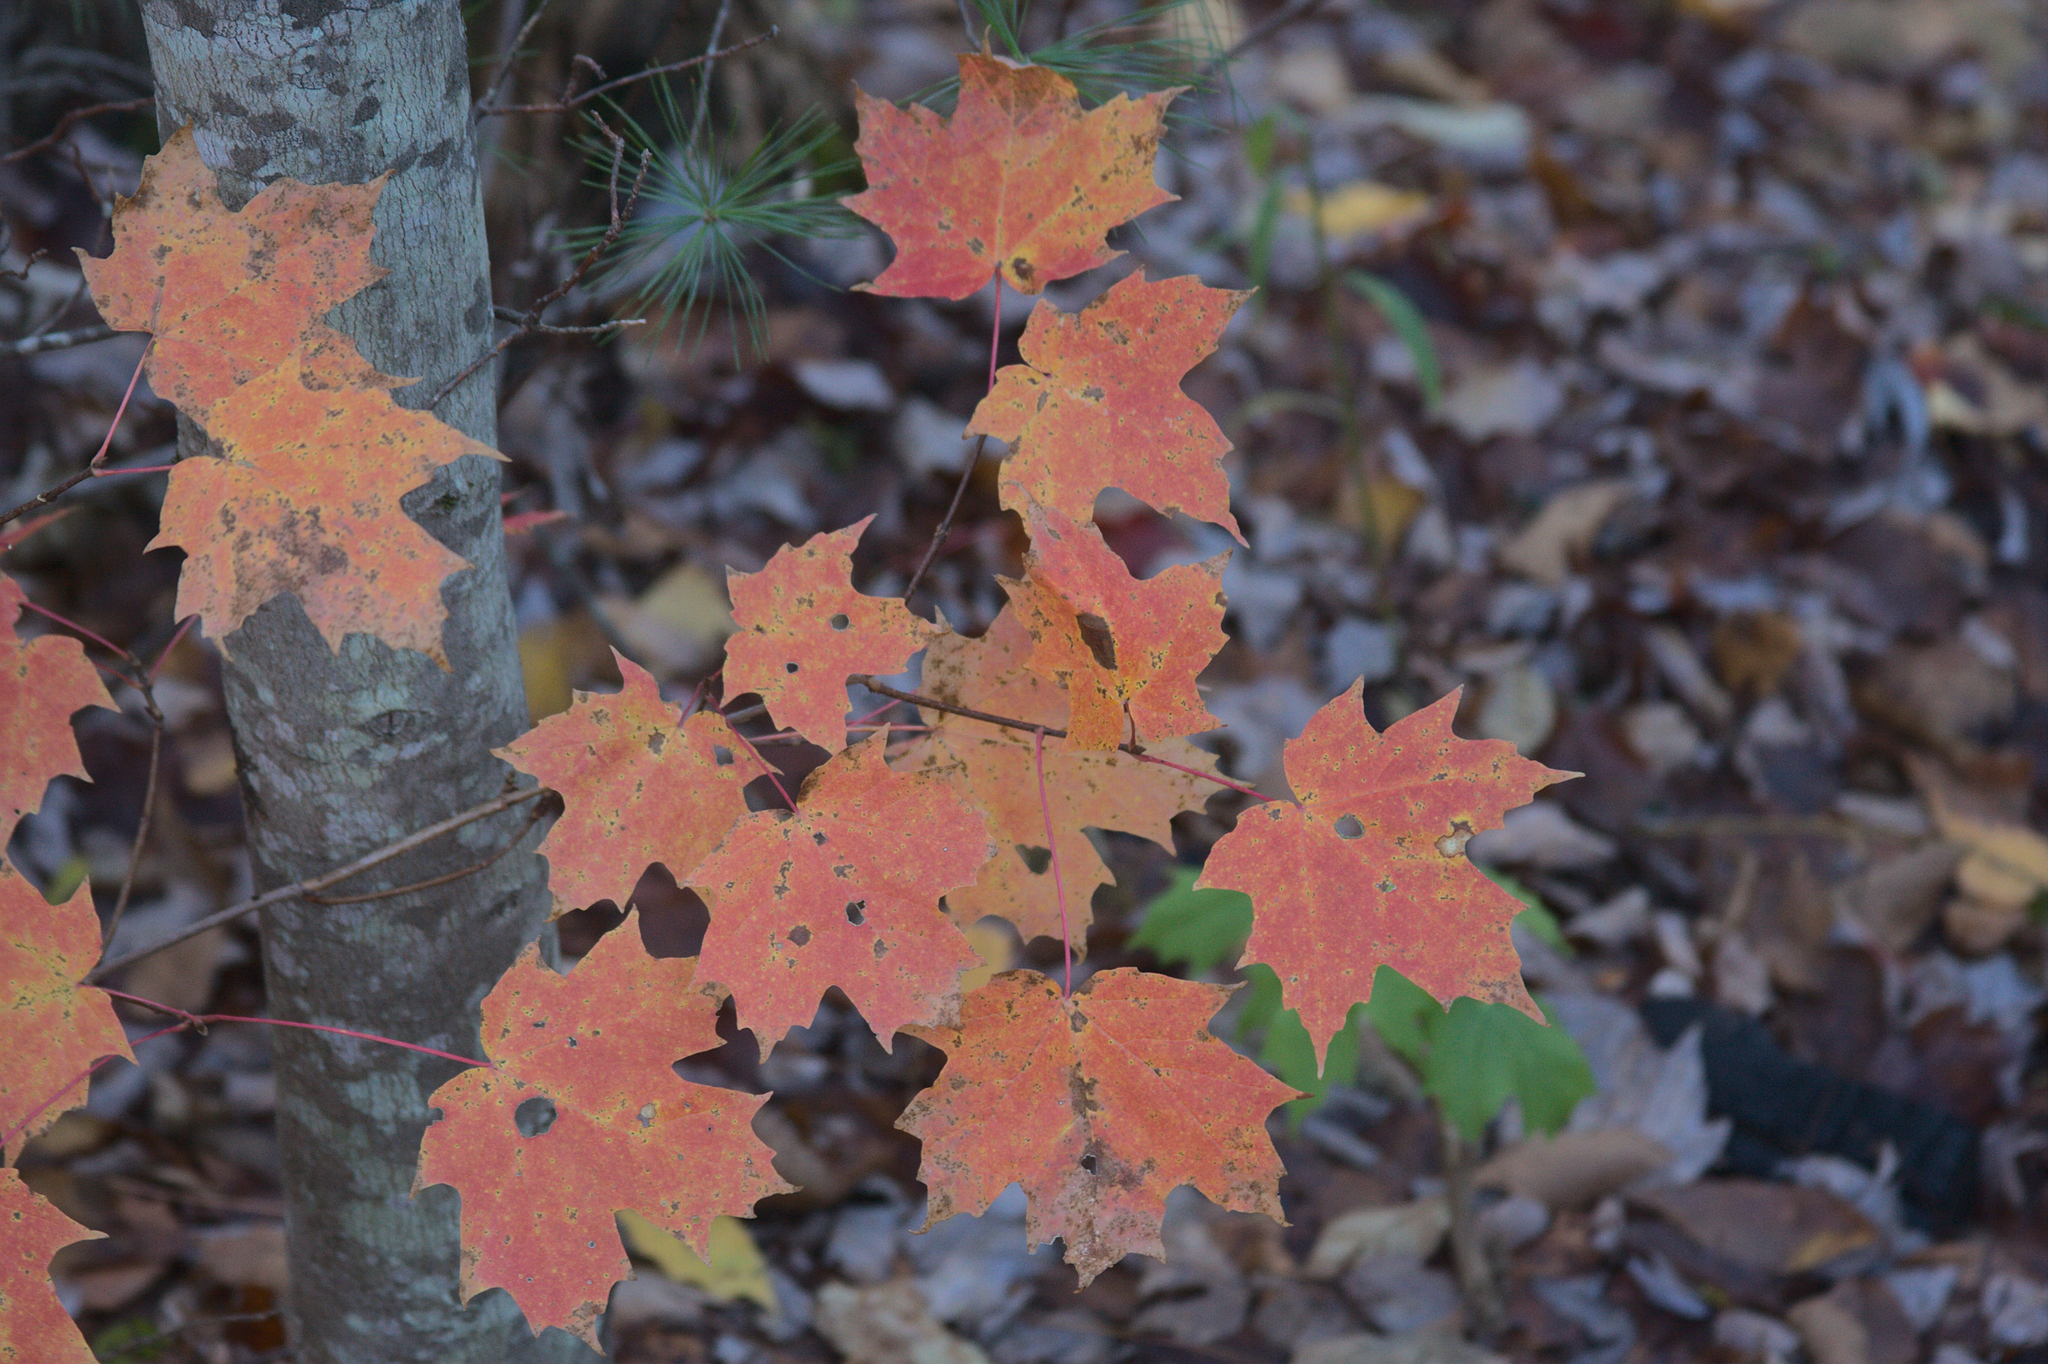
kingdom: Plantae
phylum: Tracheophyta
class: Magnoliopsida
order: Sapindales
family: Sapindaceae
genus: Acer
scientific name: Acer saccharum
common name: Sugar maple
